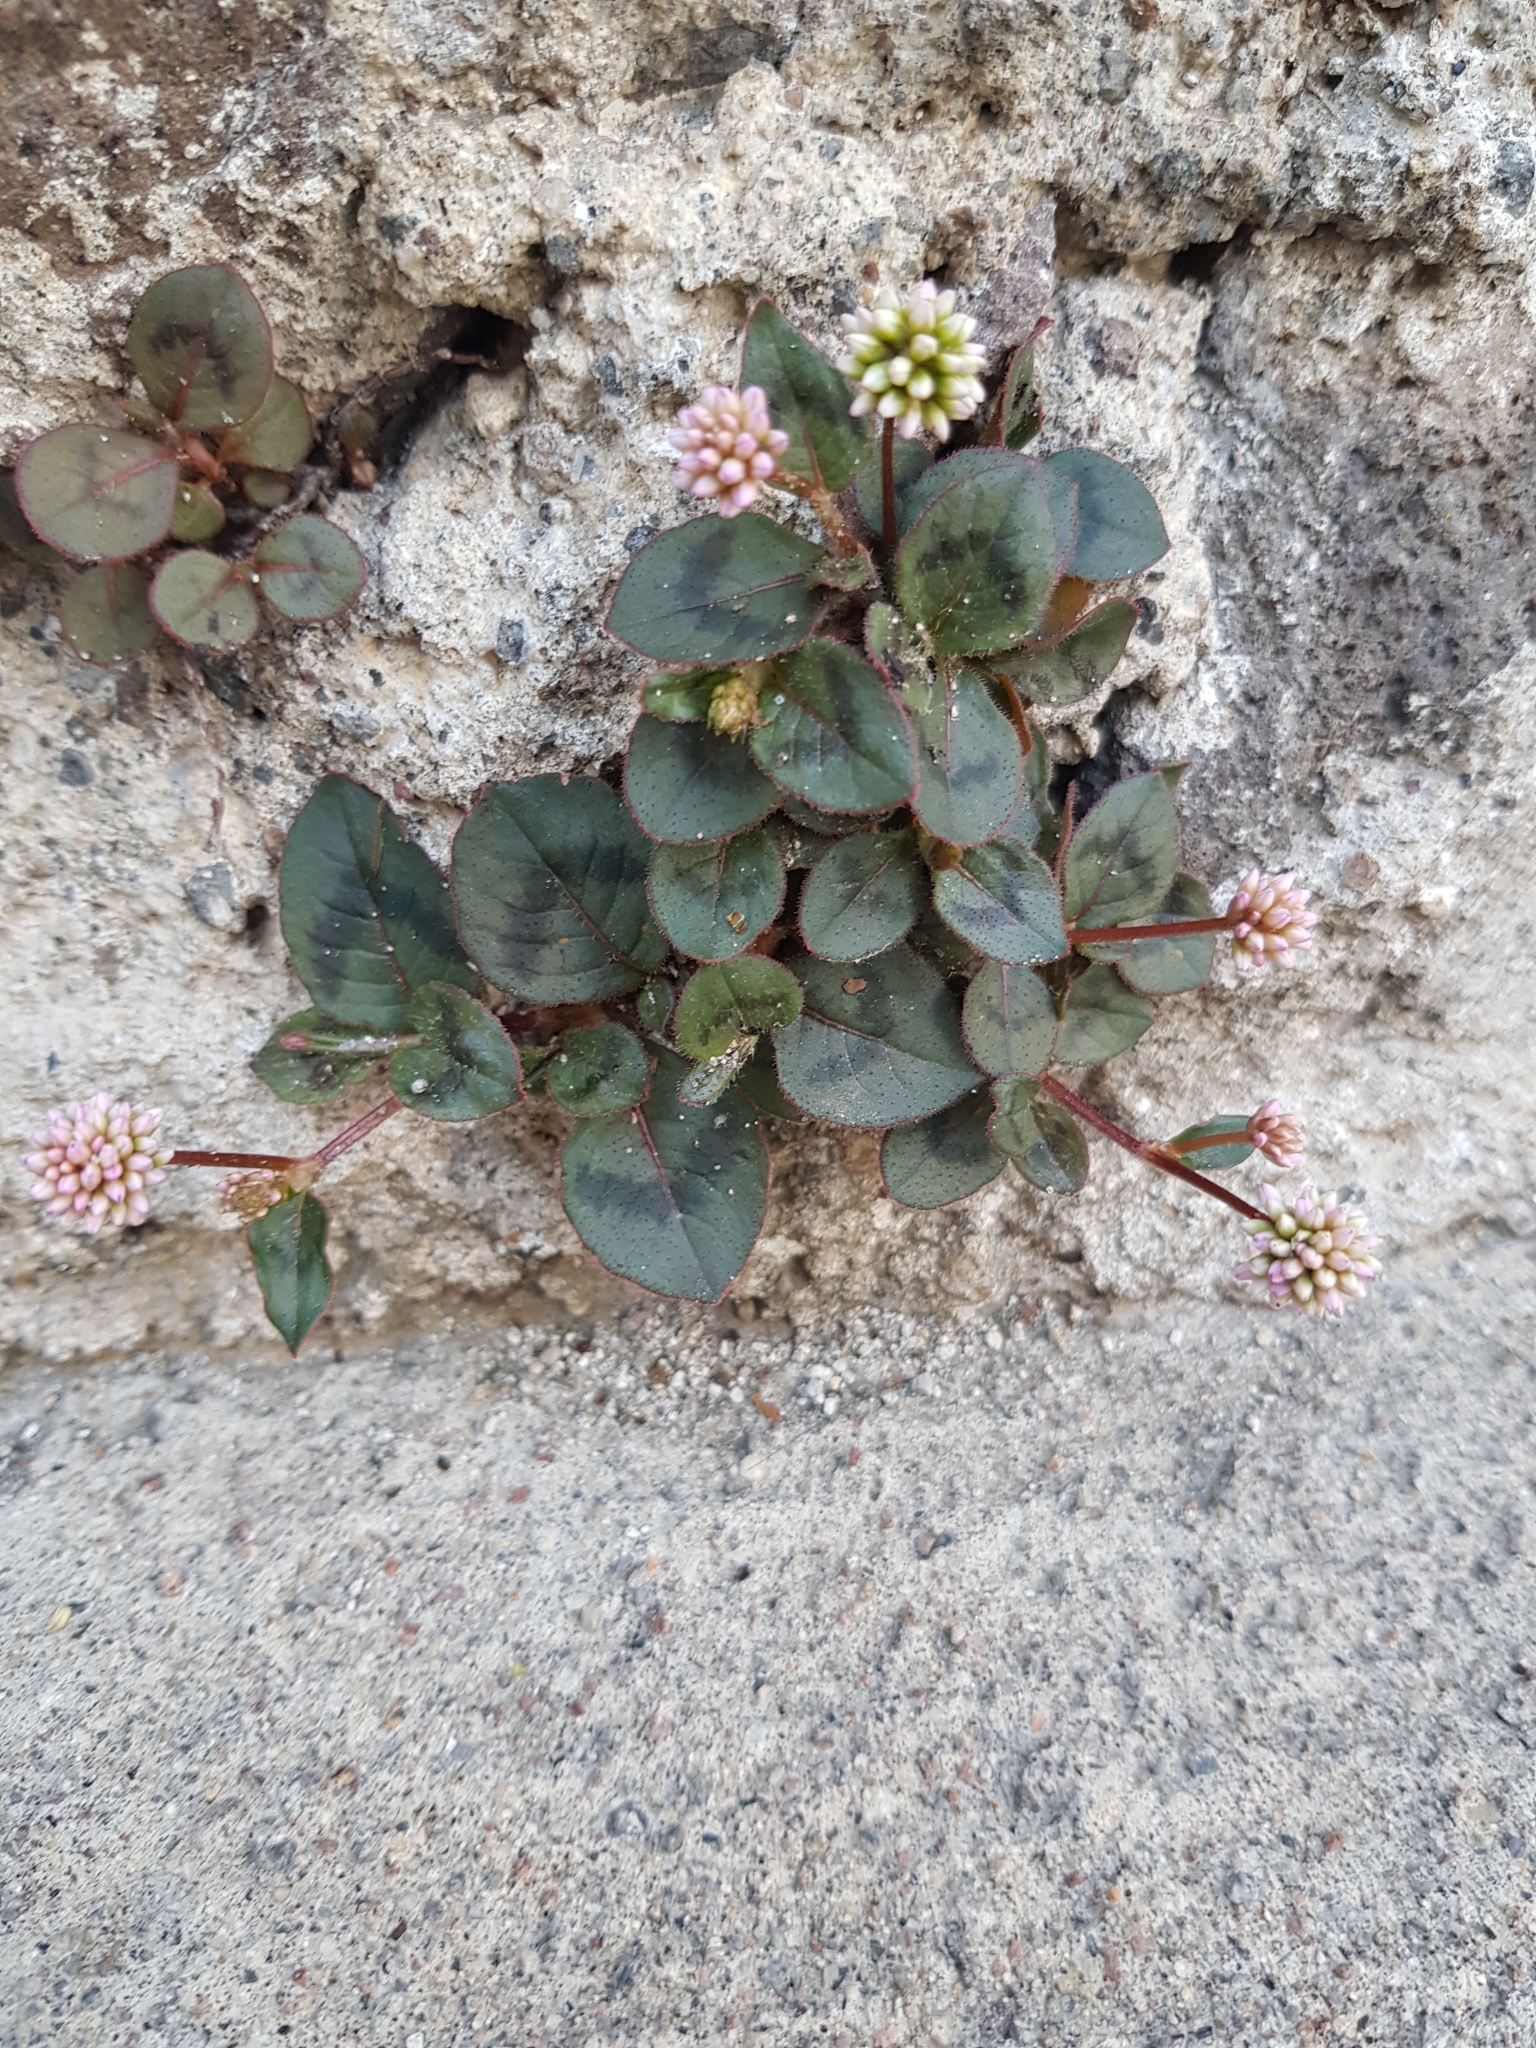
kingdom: Plantae
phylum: Tracheophyta
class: Magnoliopsida
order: Caryophyllales
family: Polygonaceae
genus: Persicaria
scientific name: Persicaria capitata
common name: Pinkhead smartweed
